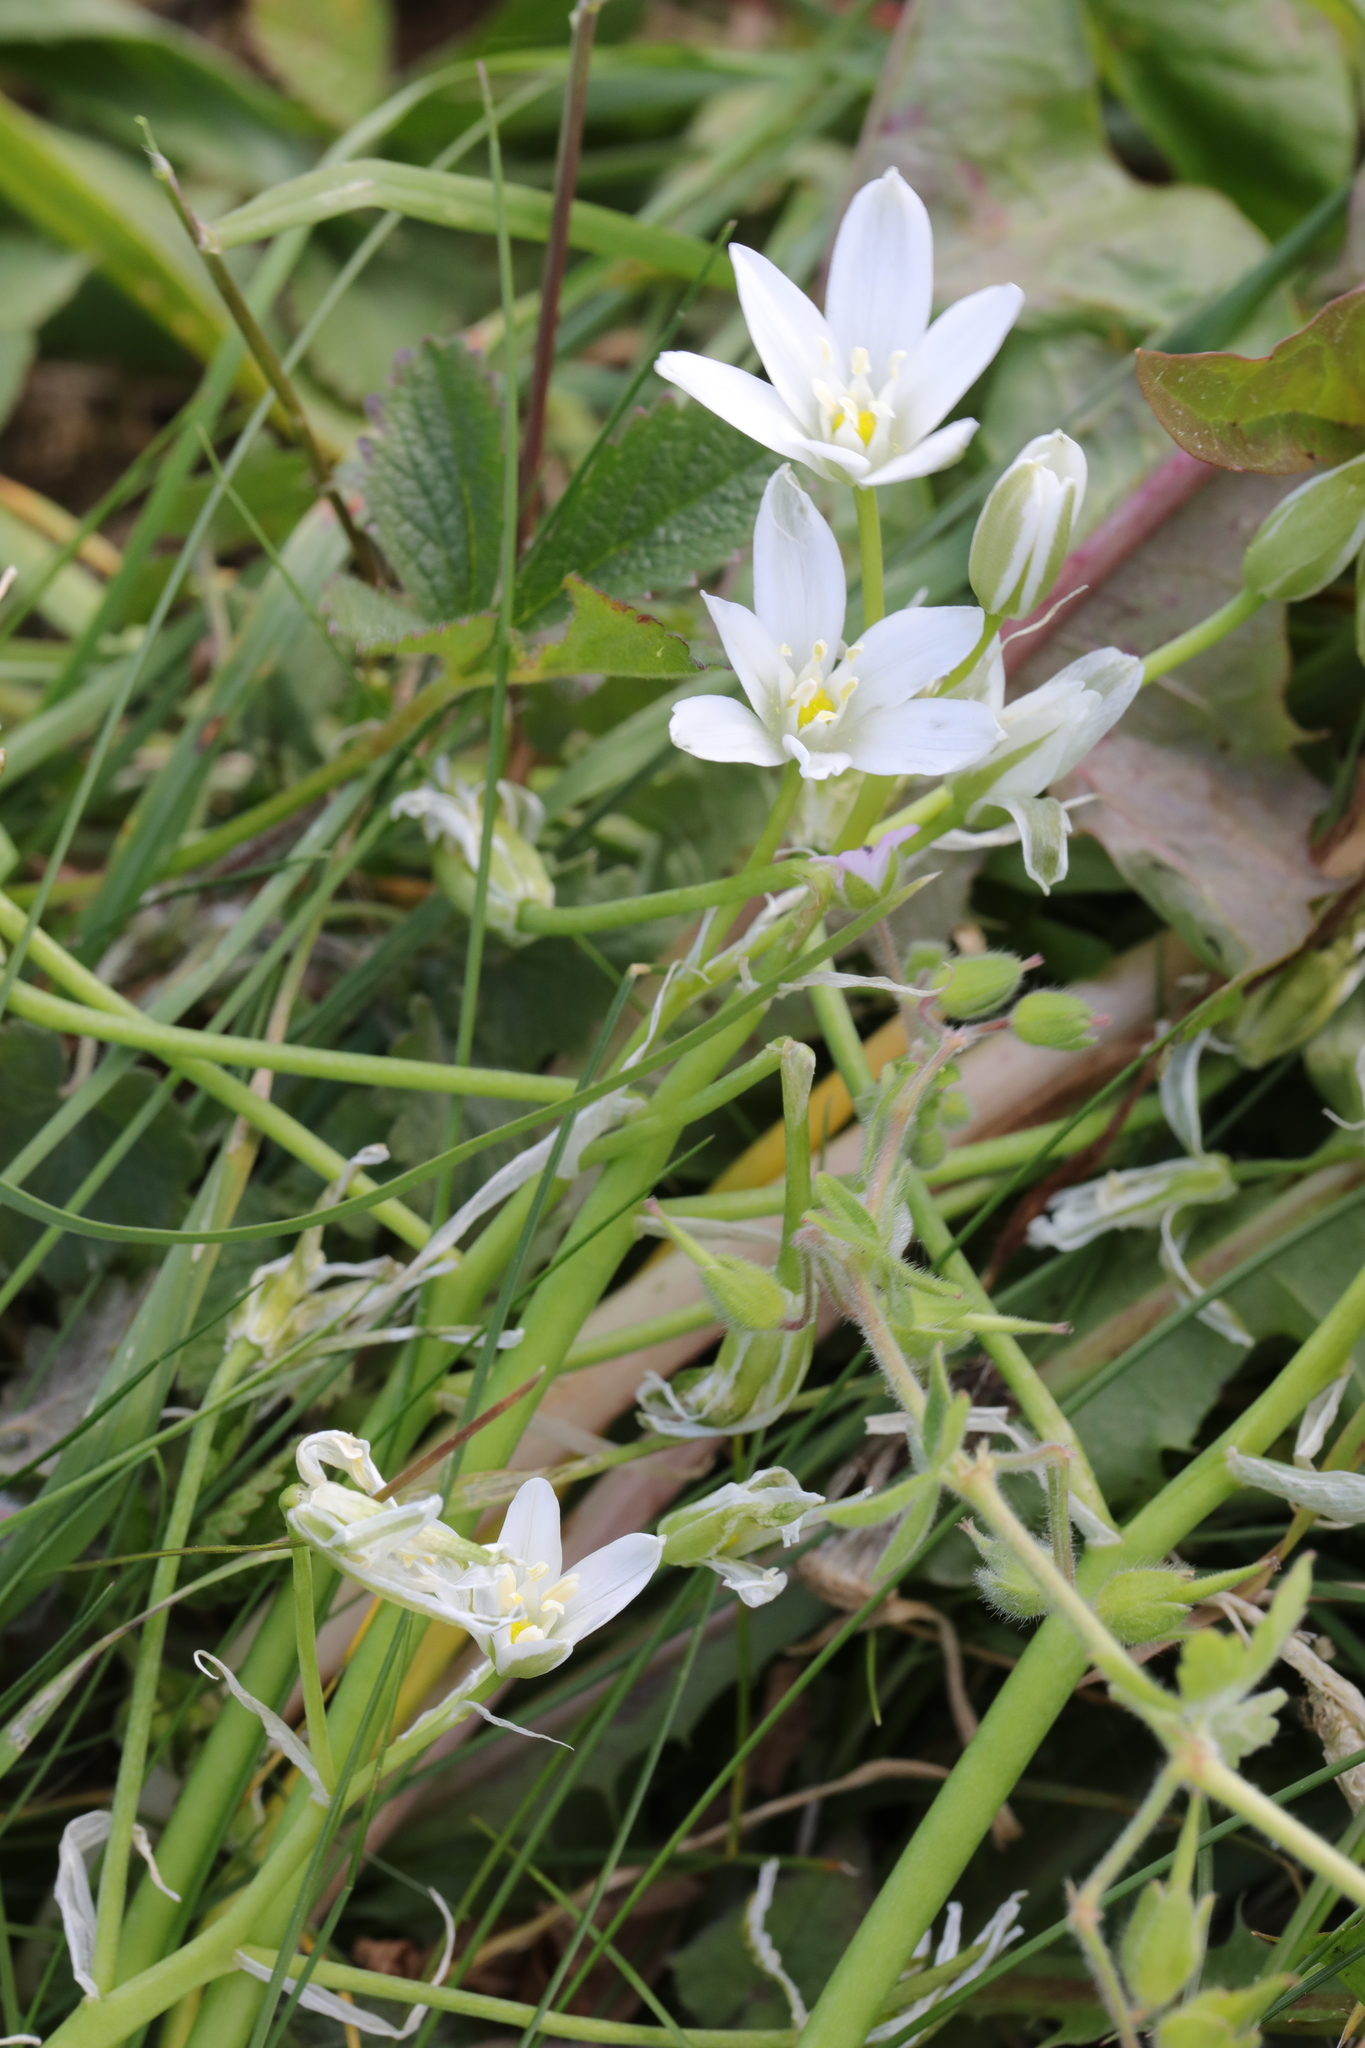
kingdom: Plantae
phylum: Tracheophyta
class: Liliopsida
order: Asparagales
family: Asparagaceae
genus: Ornithogalum
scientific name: Ornithogalum umbellatum
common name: Garden star-of-bethlehem
